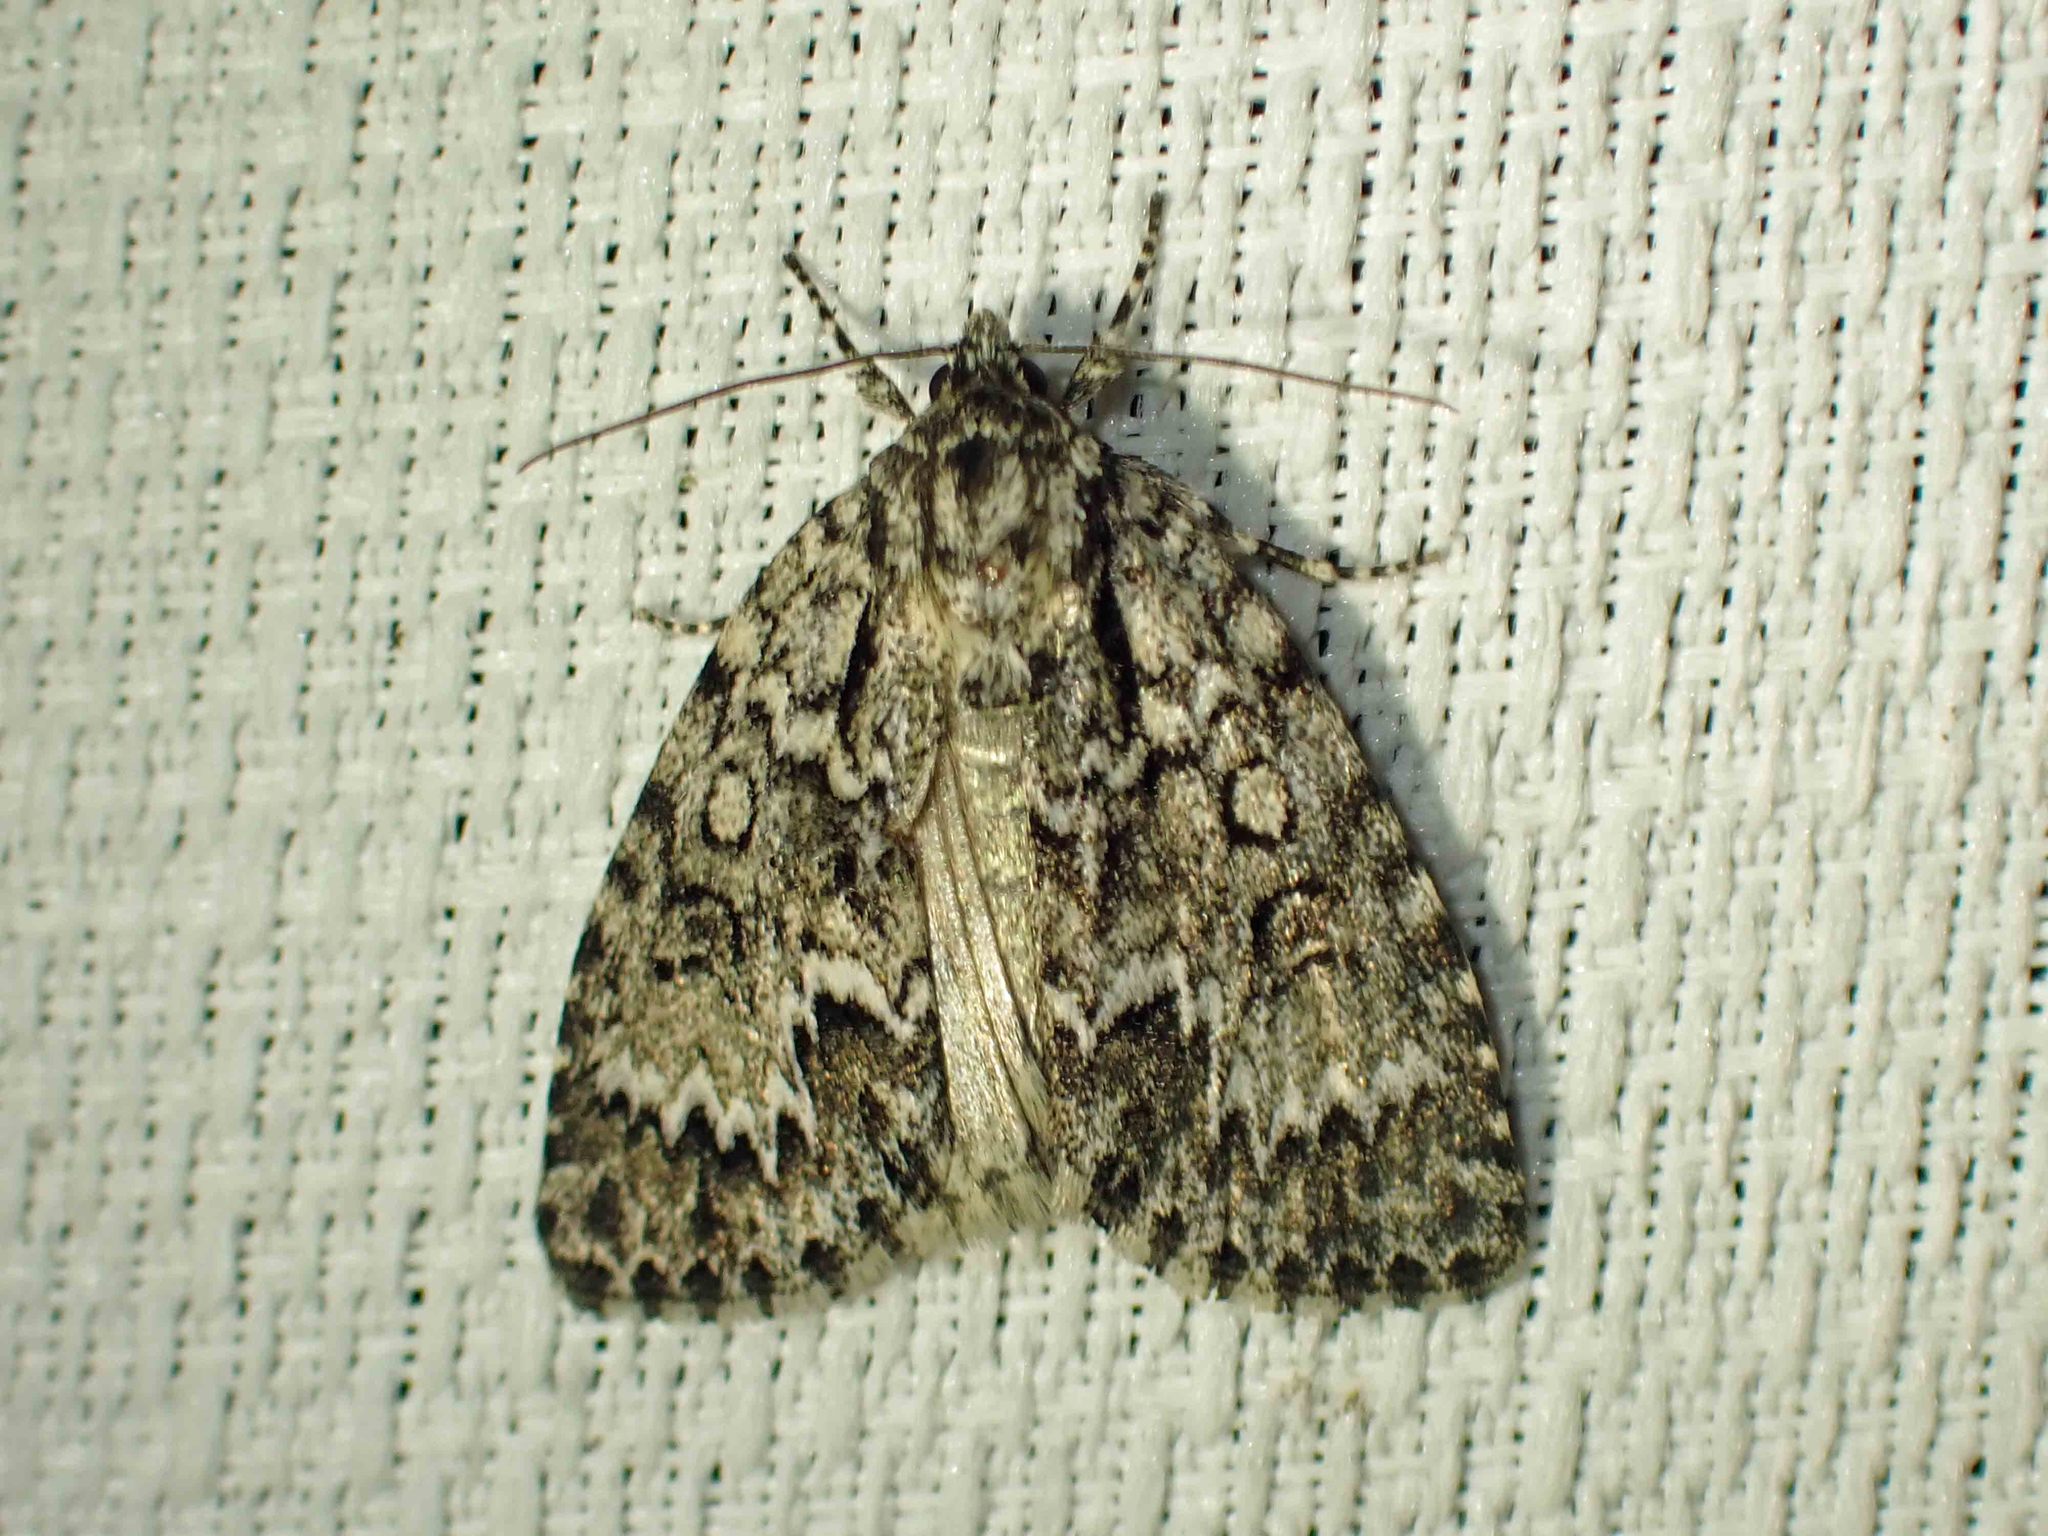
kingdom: Animalia
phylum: Arthropoda
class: Insecta
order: Lepidoptera
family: Noctuidae
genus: Acronicta
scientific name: Acronicta fragilis
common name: Fragile dagger
